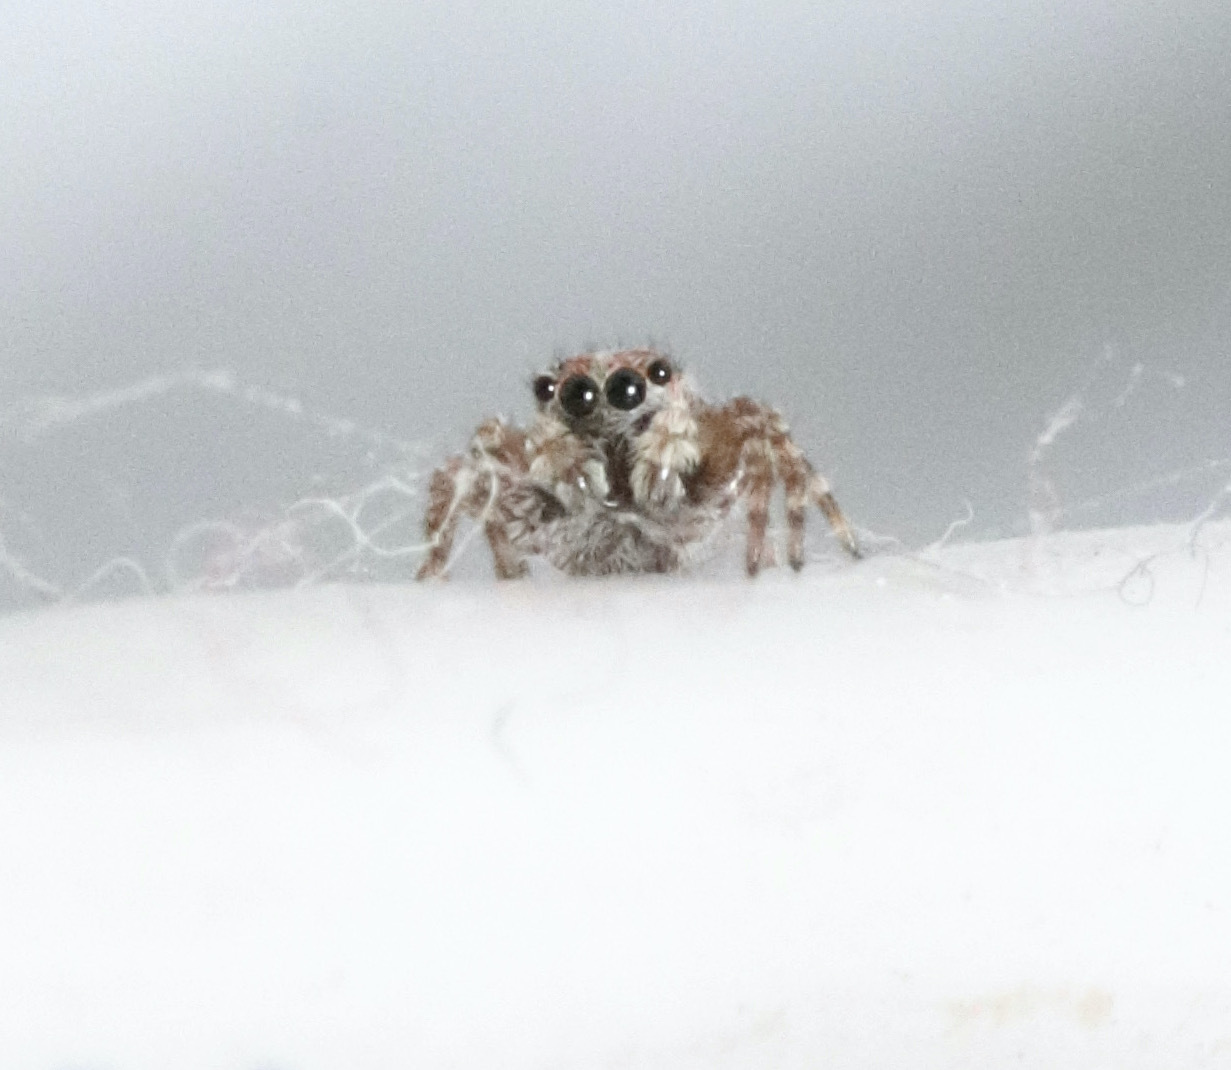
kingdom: Animalia
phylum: Arthropoda
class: Arachnida
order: Araneae
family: Salticidae
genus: Attulus
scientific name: Attulus fasciger
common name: Asiatic wall jumping spider
